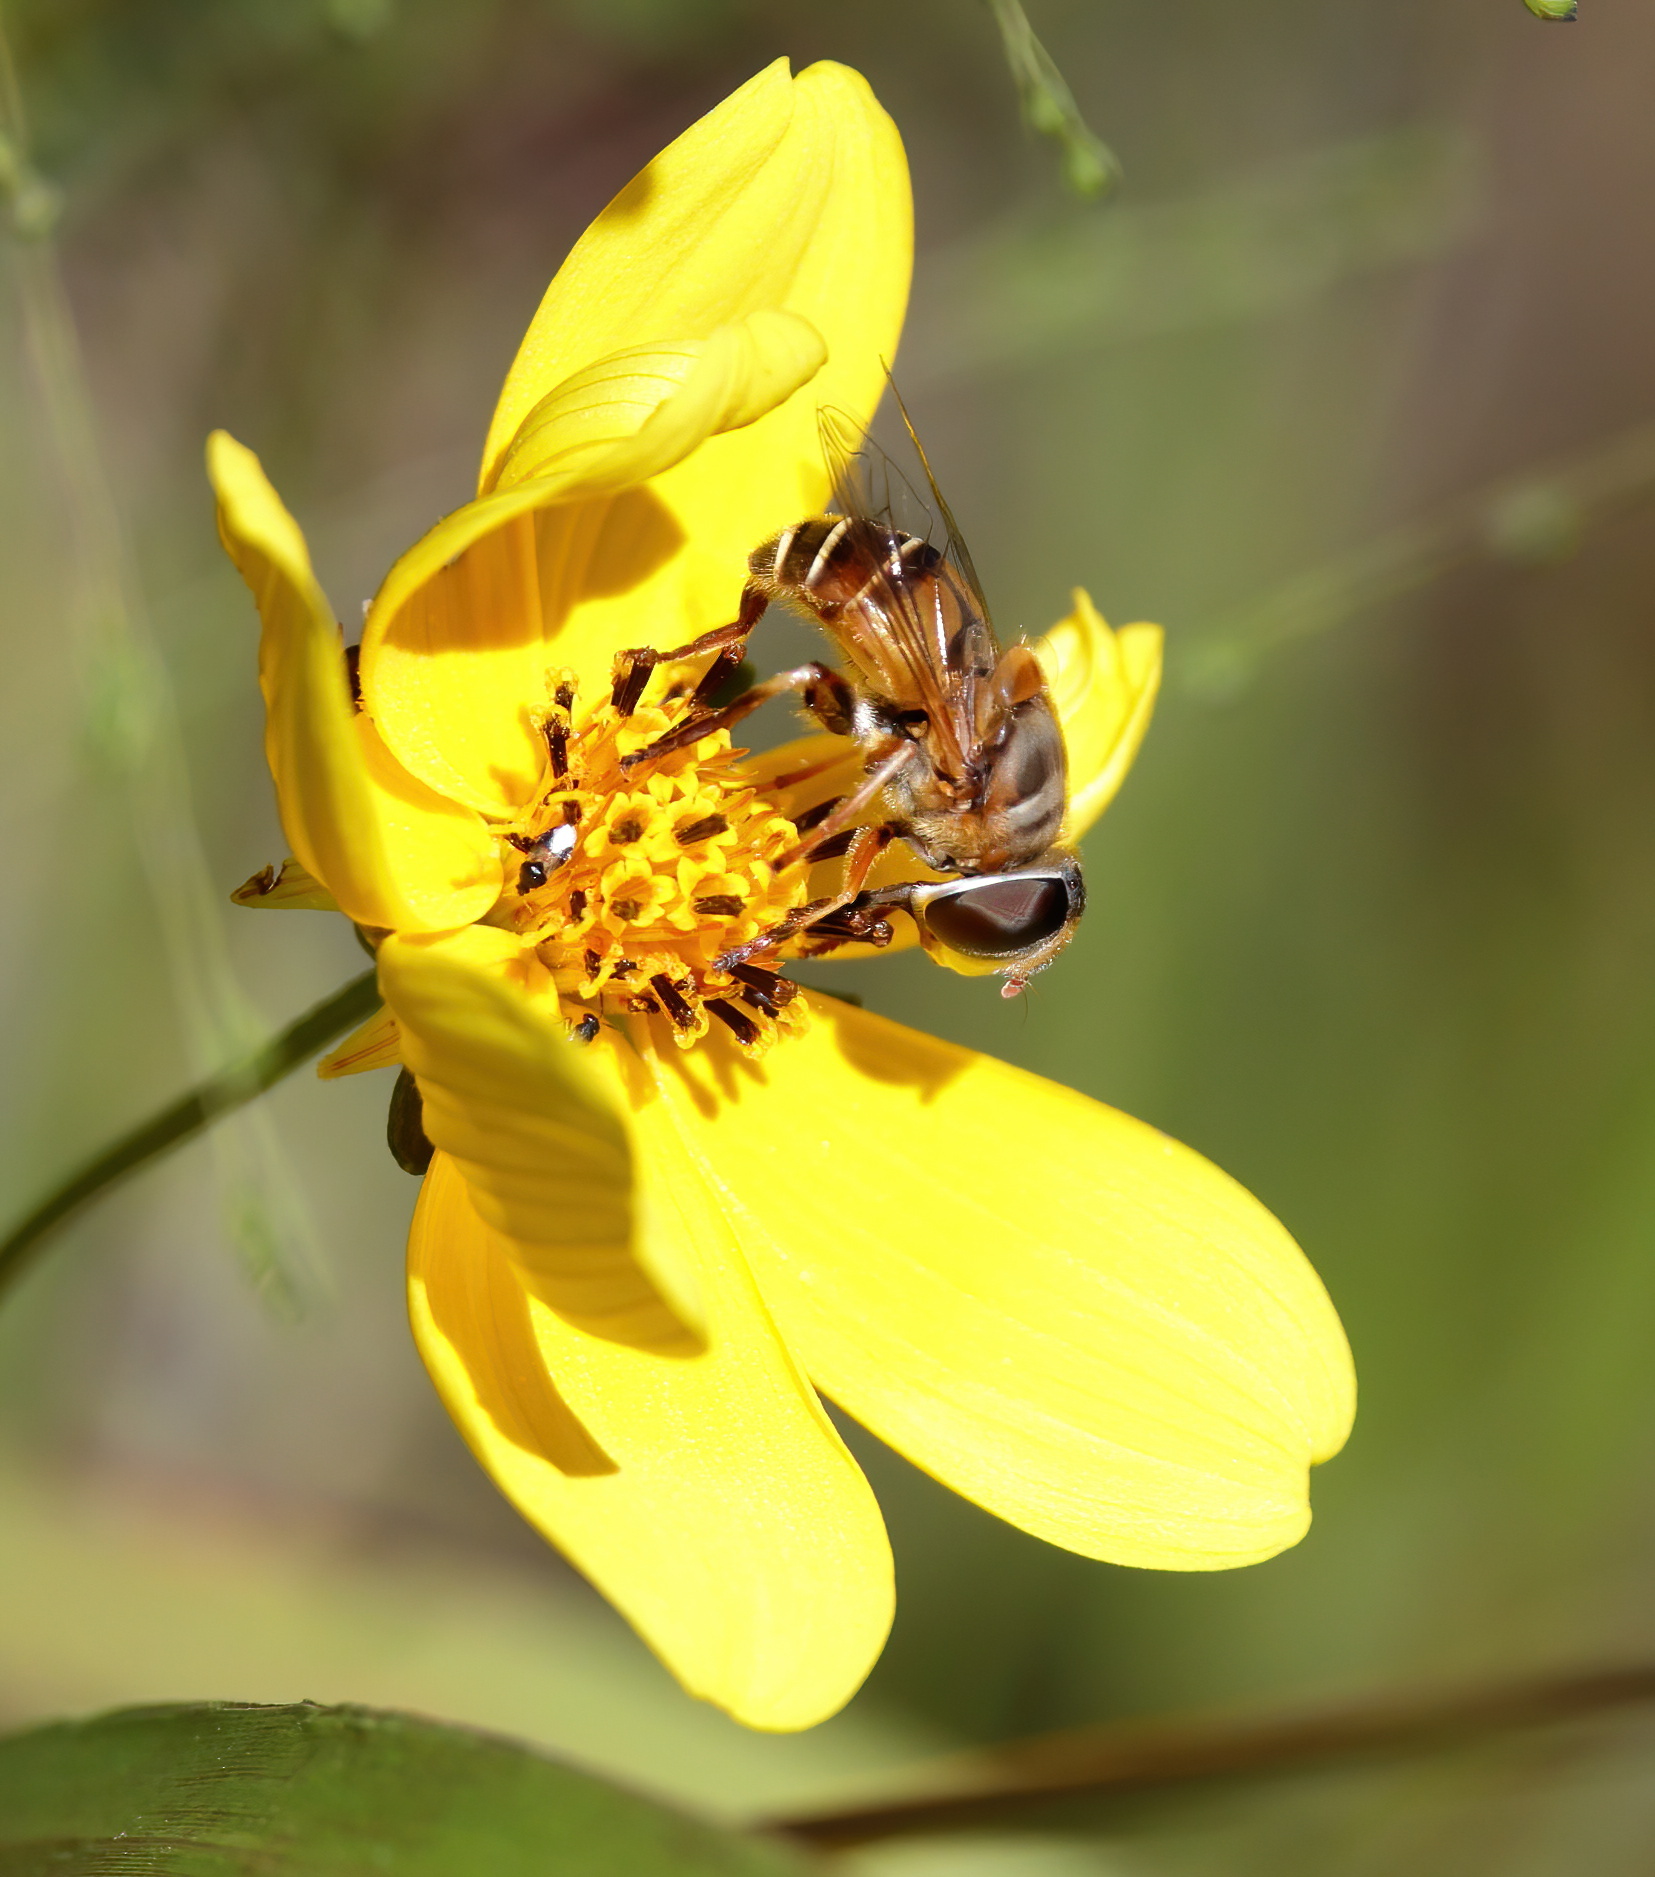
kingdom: Animalia
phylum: Arthropoda
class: Insecta
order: Diptera
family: Syrphidae
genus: Palpada
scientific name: Palpada vinetorum
